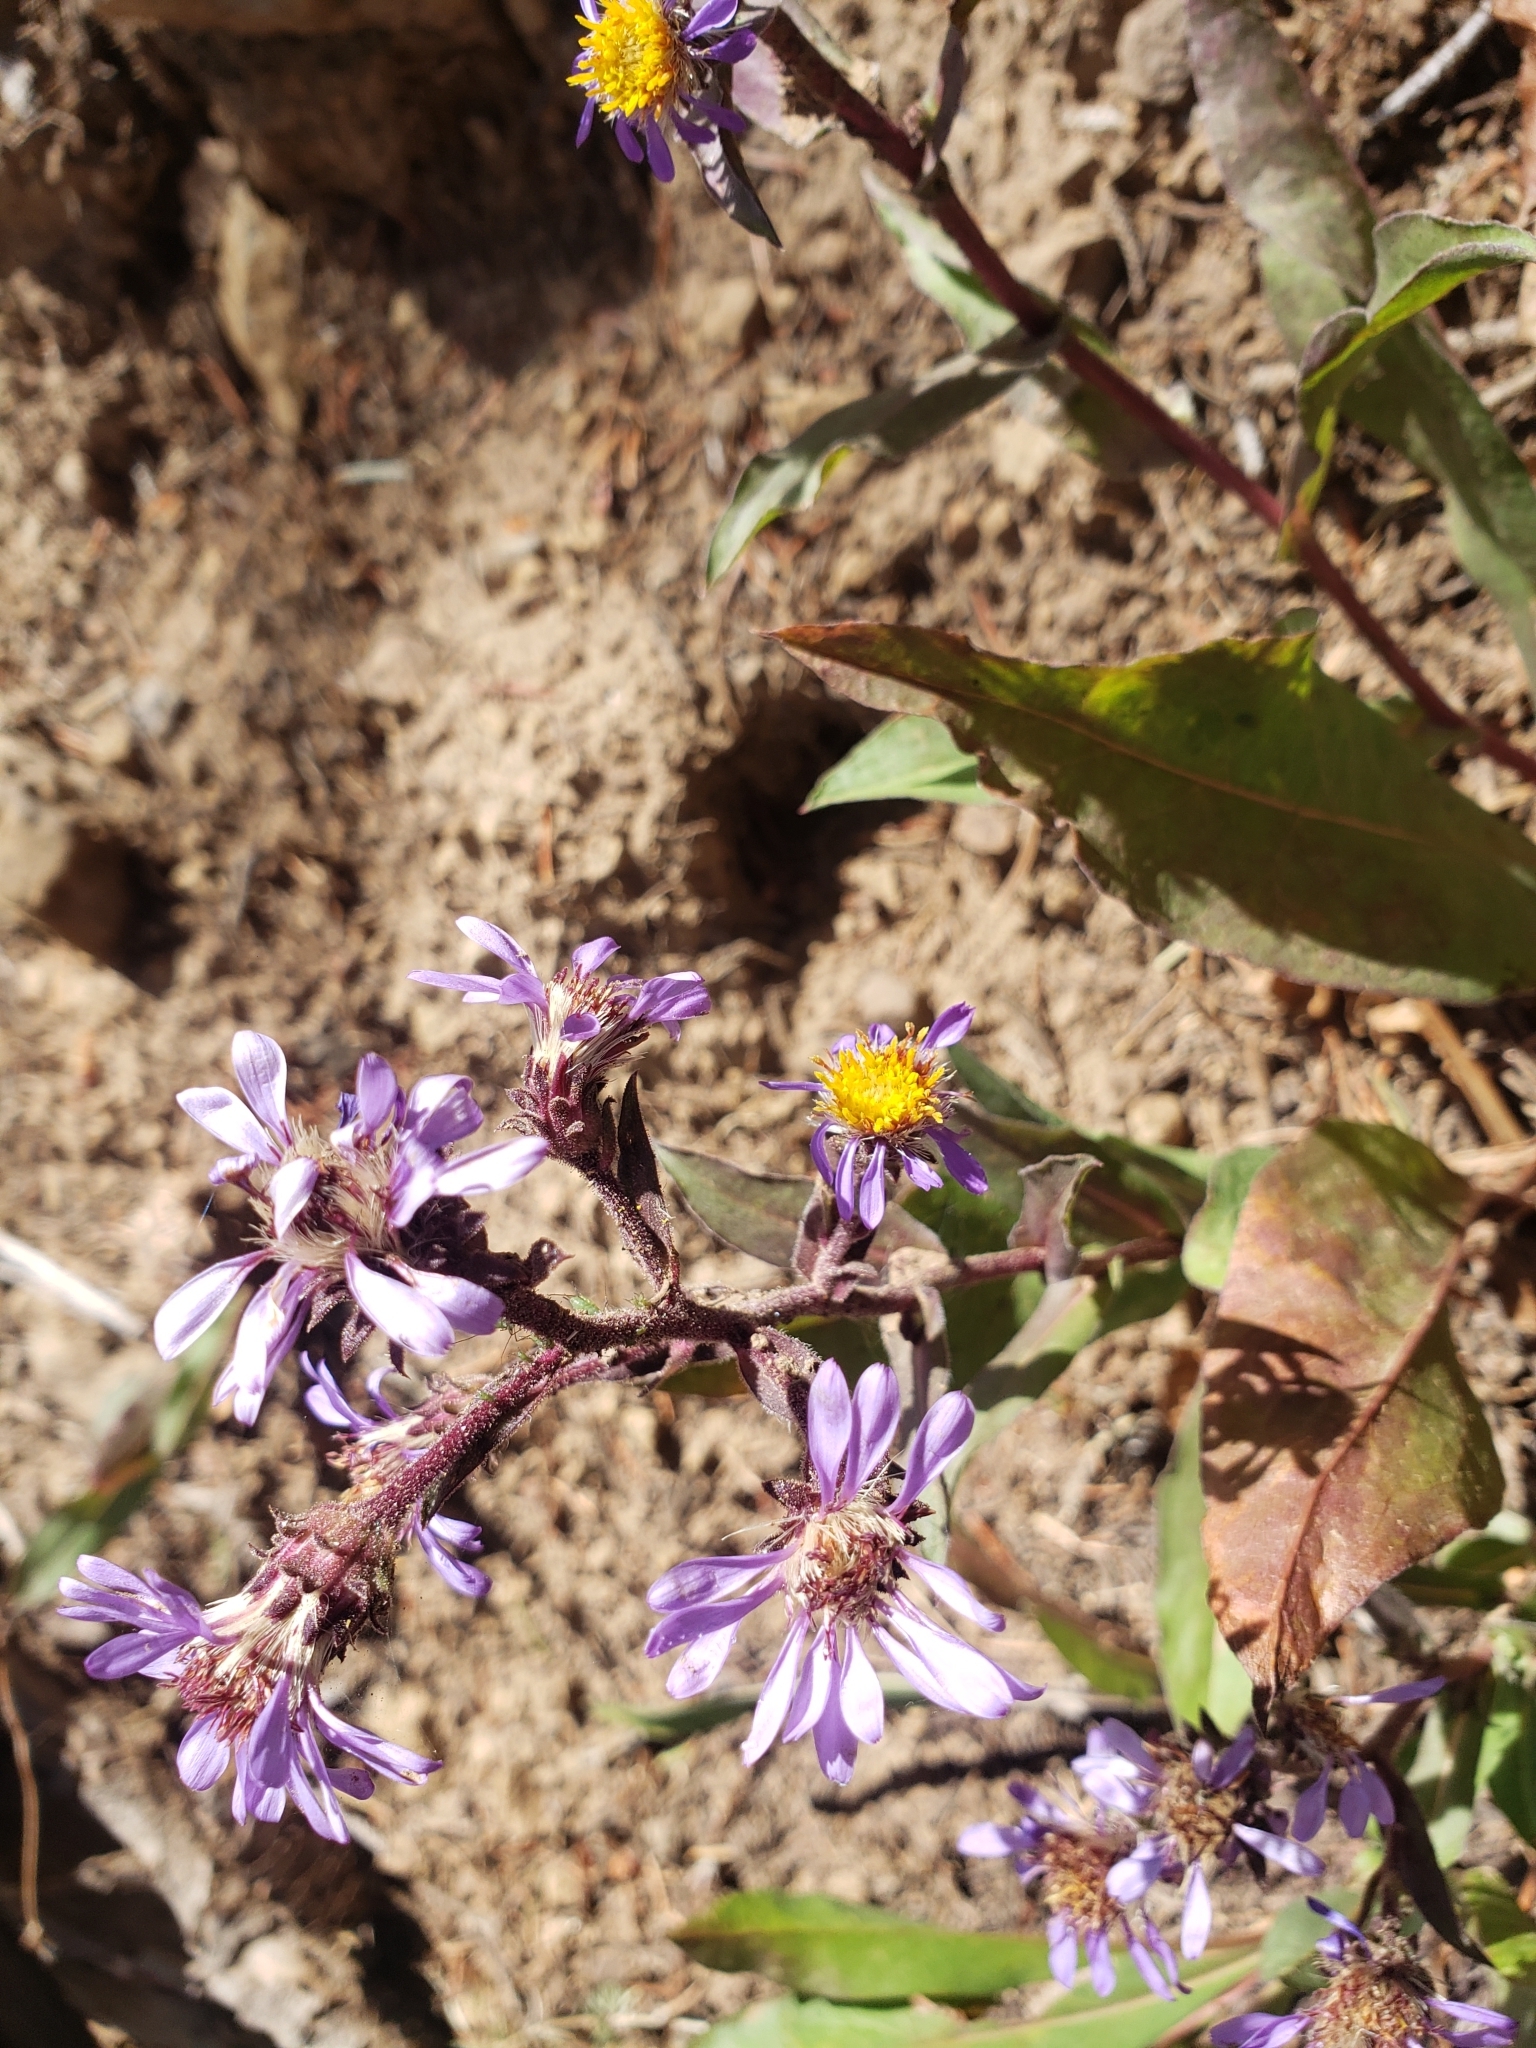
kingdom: Plantae
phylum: Tracheophyta
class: Magnoliopsida
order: Asterales
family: Asteraceae
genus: Eurybia
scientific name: Eurybia integrifolia
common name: Thick-stem aster
